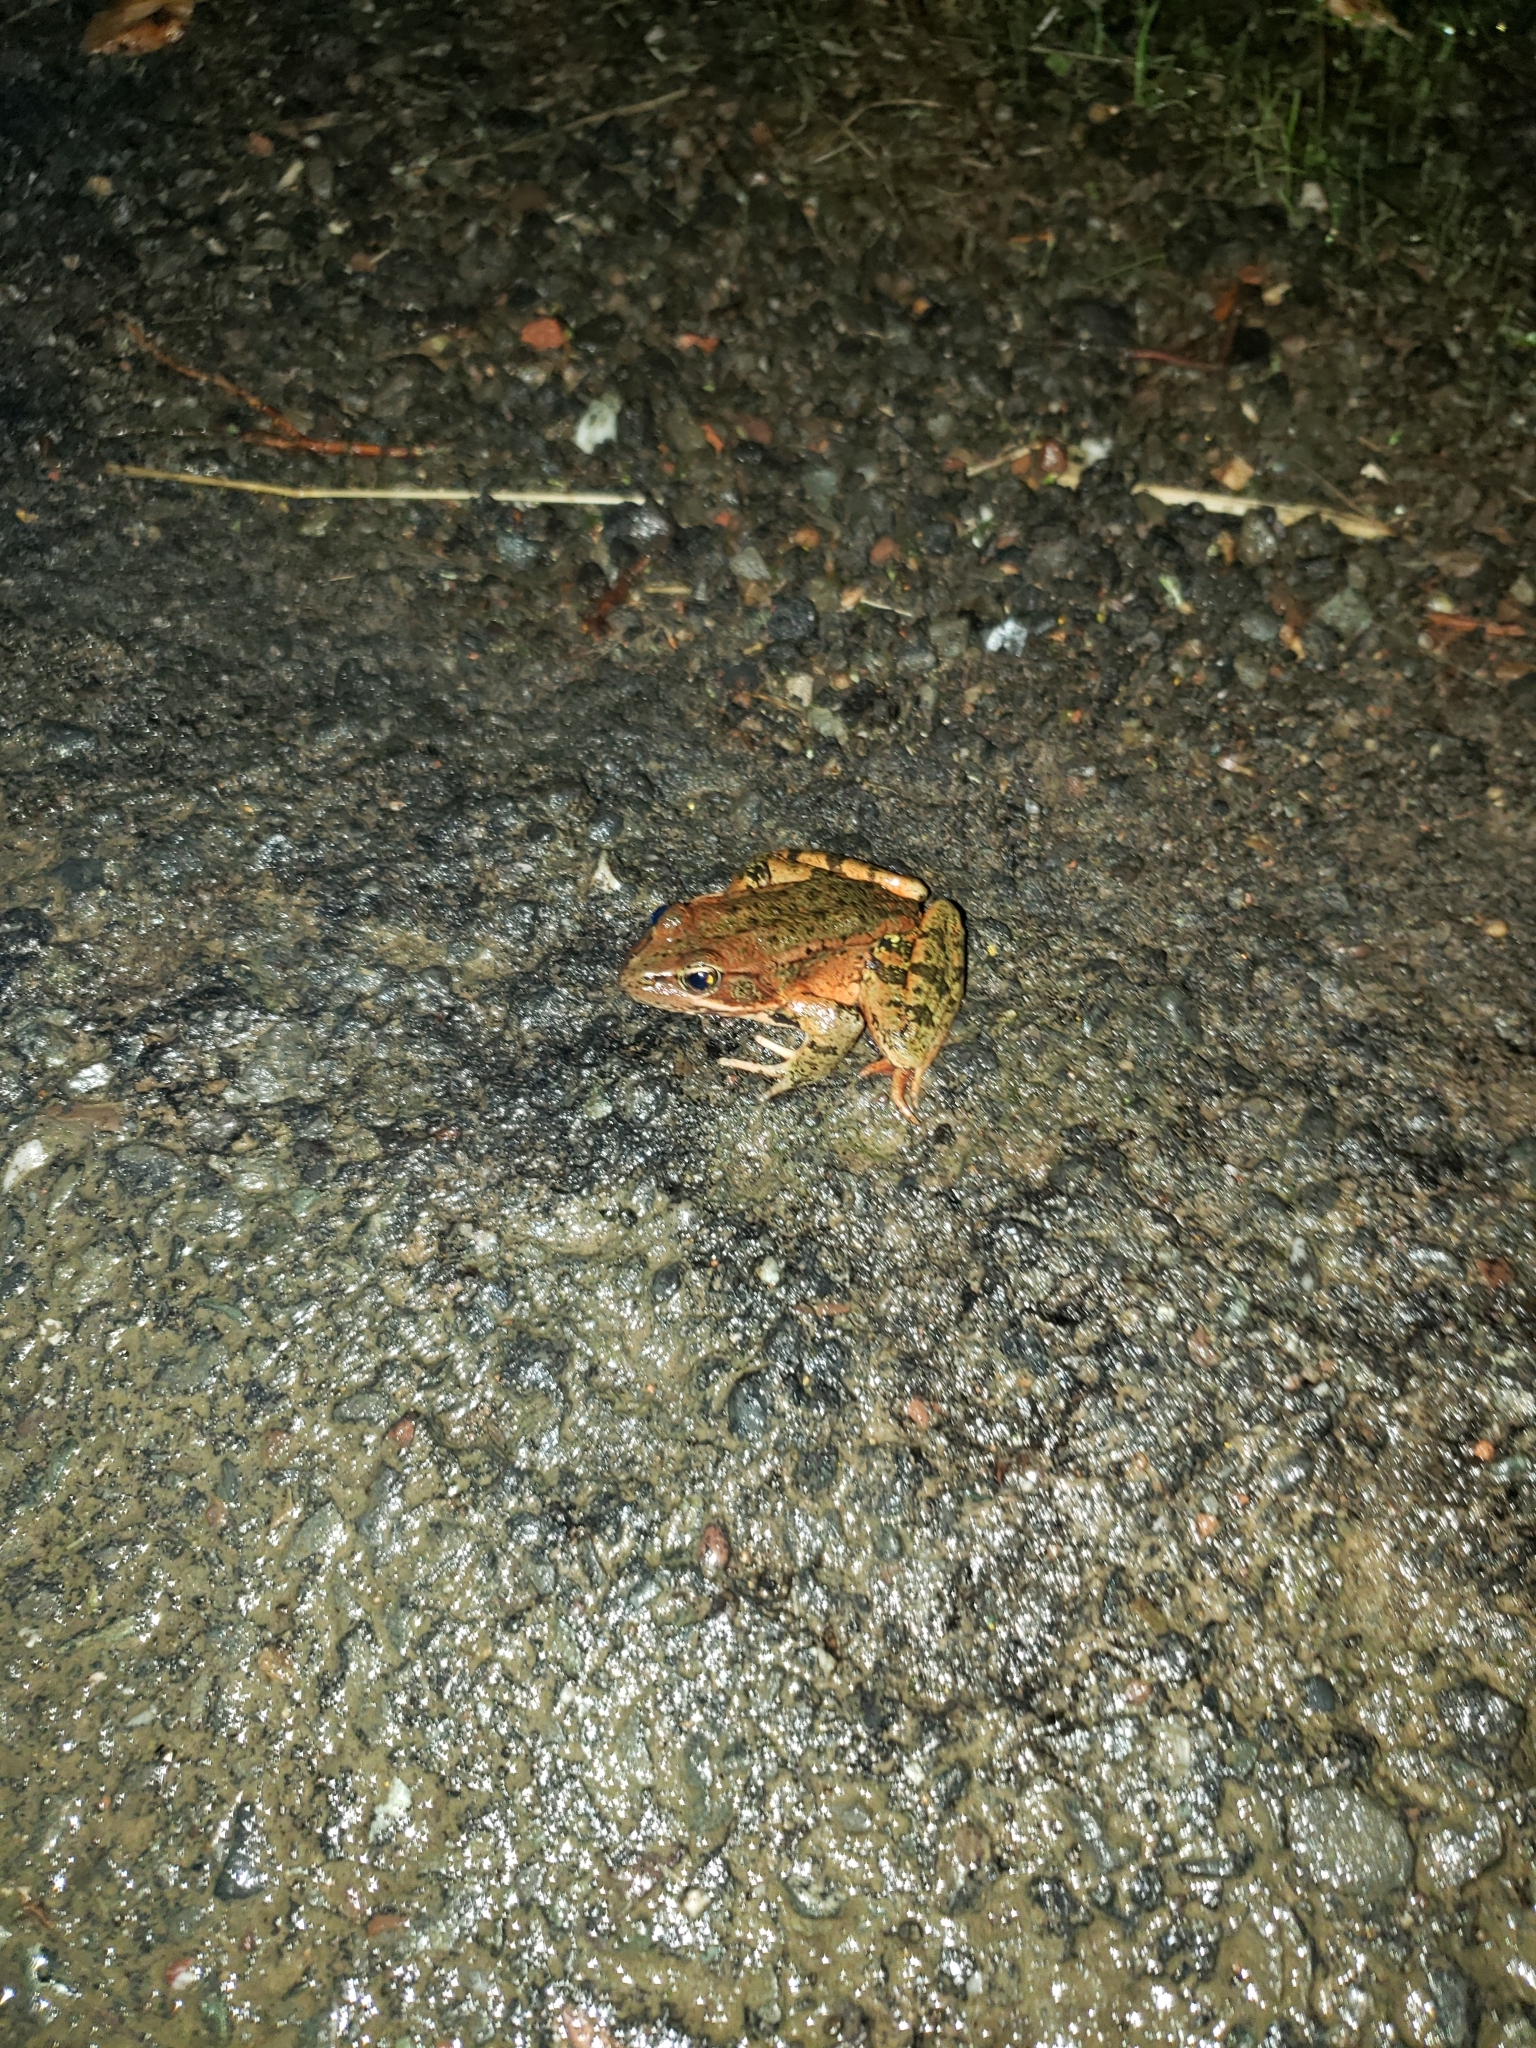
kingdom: Animalia
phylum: Chordata
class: Amphibia
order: Anura
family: Ranidae
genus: Rana
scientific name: Rana draytonii
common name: California red-legged frog
